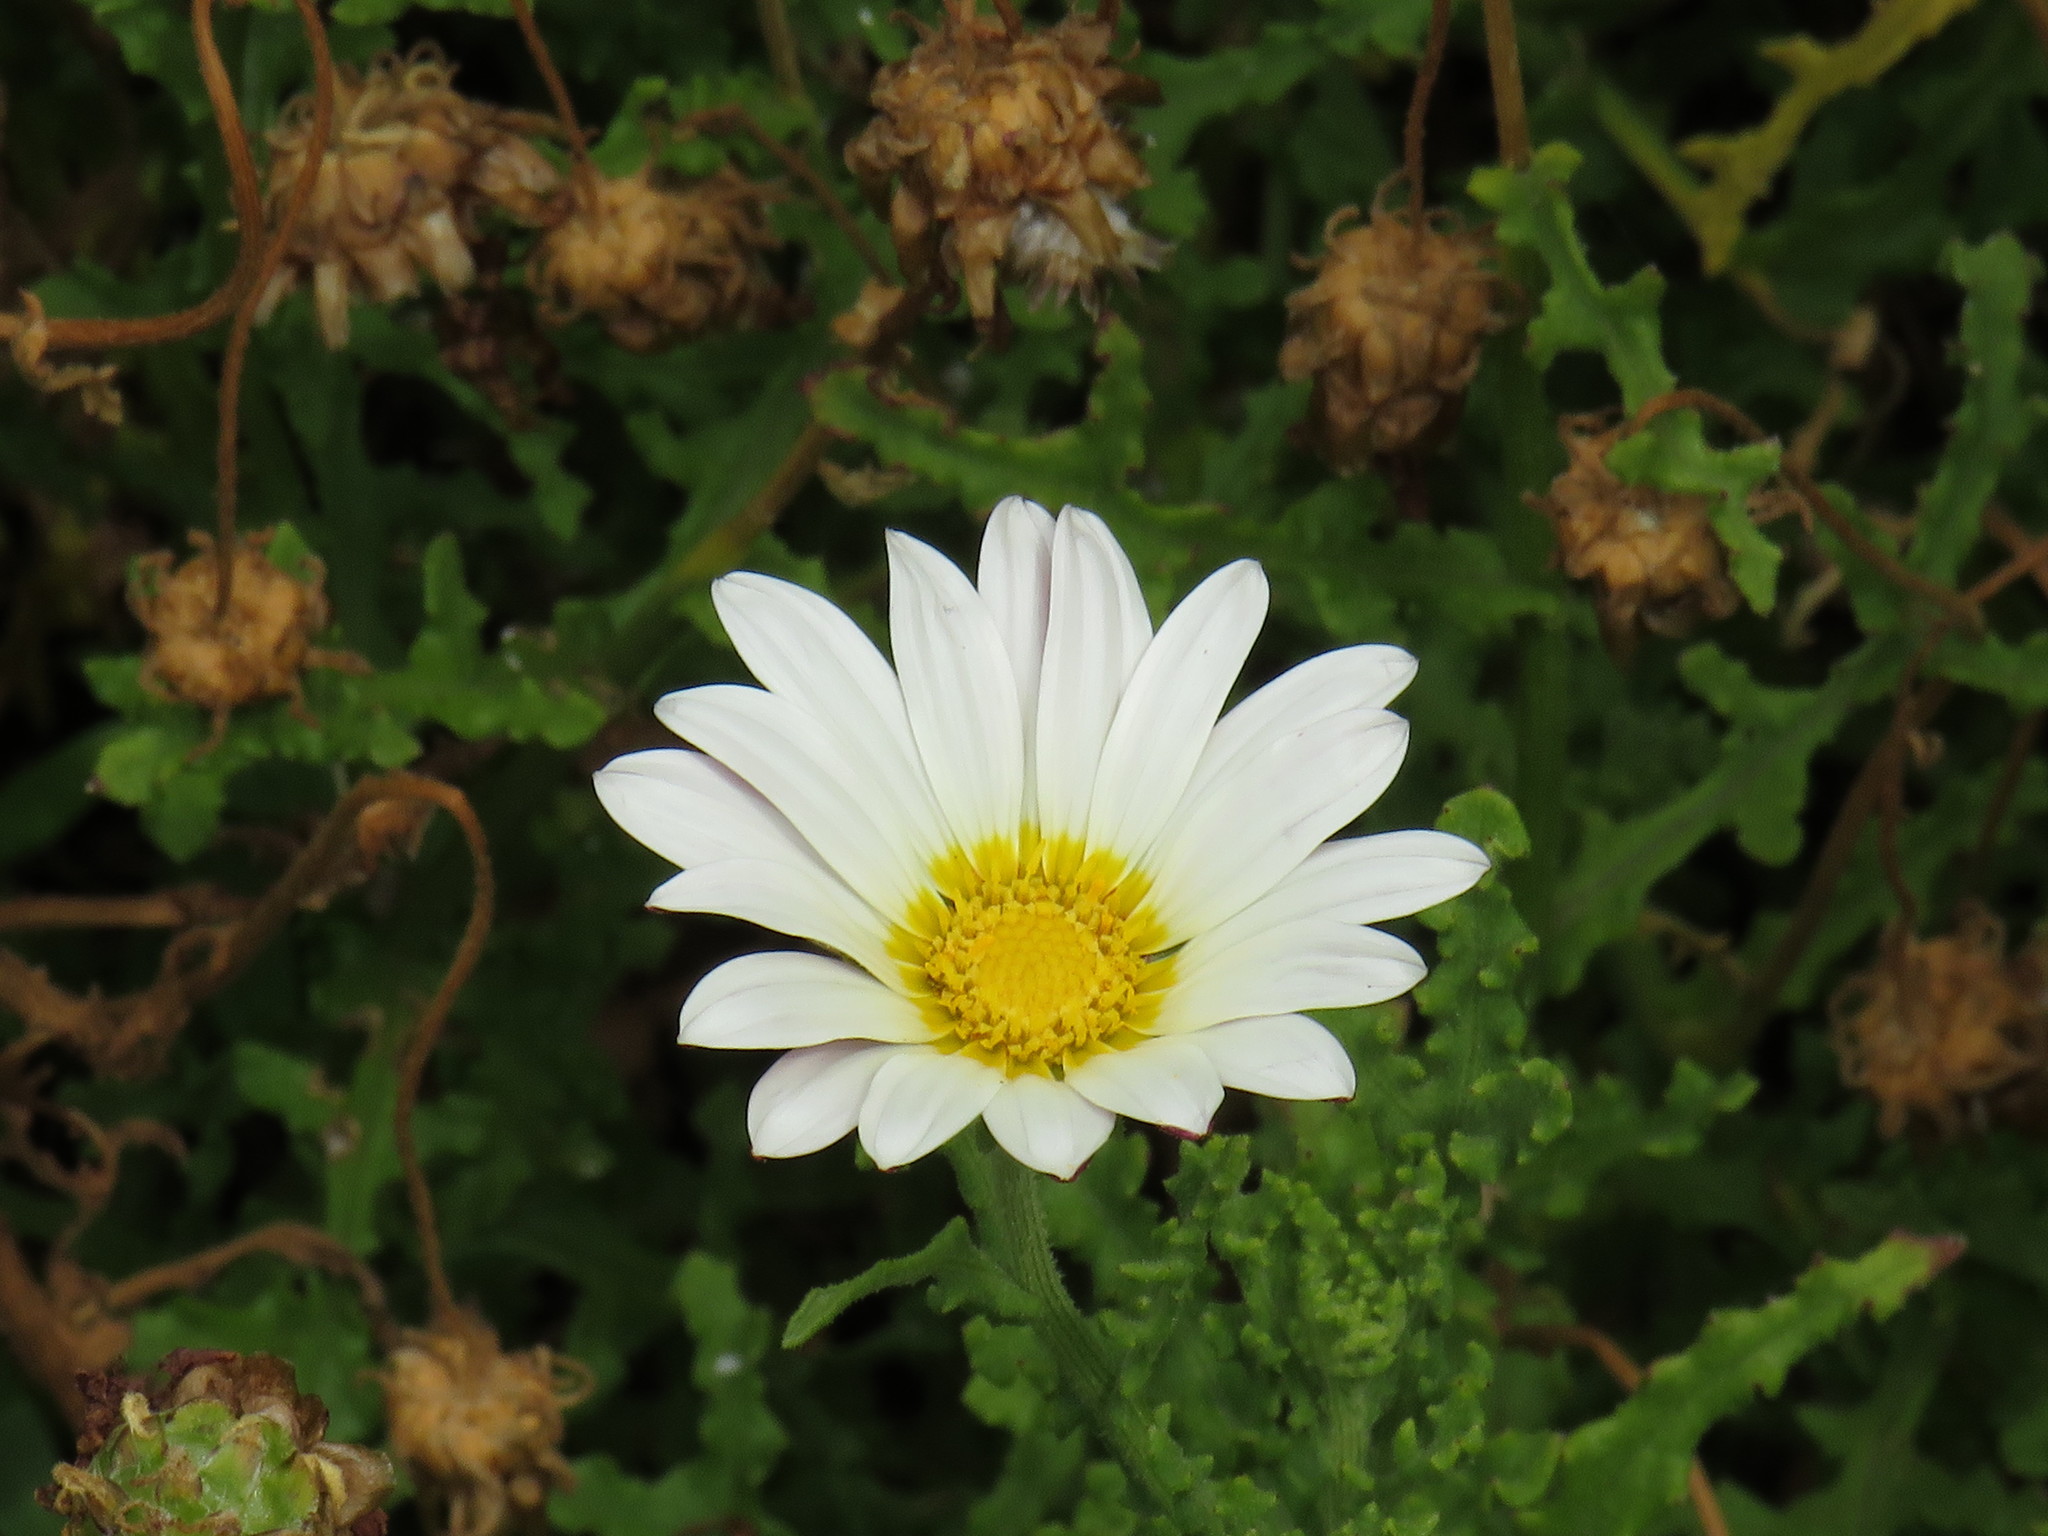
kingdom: Plantae
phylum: Tracheophyta
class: Magnoliopsida
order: Asterales
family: Asteraceae
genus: Arctotis
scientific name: Arctotis aspera
